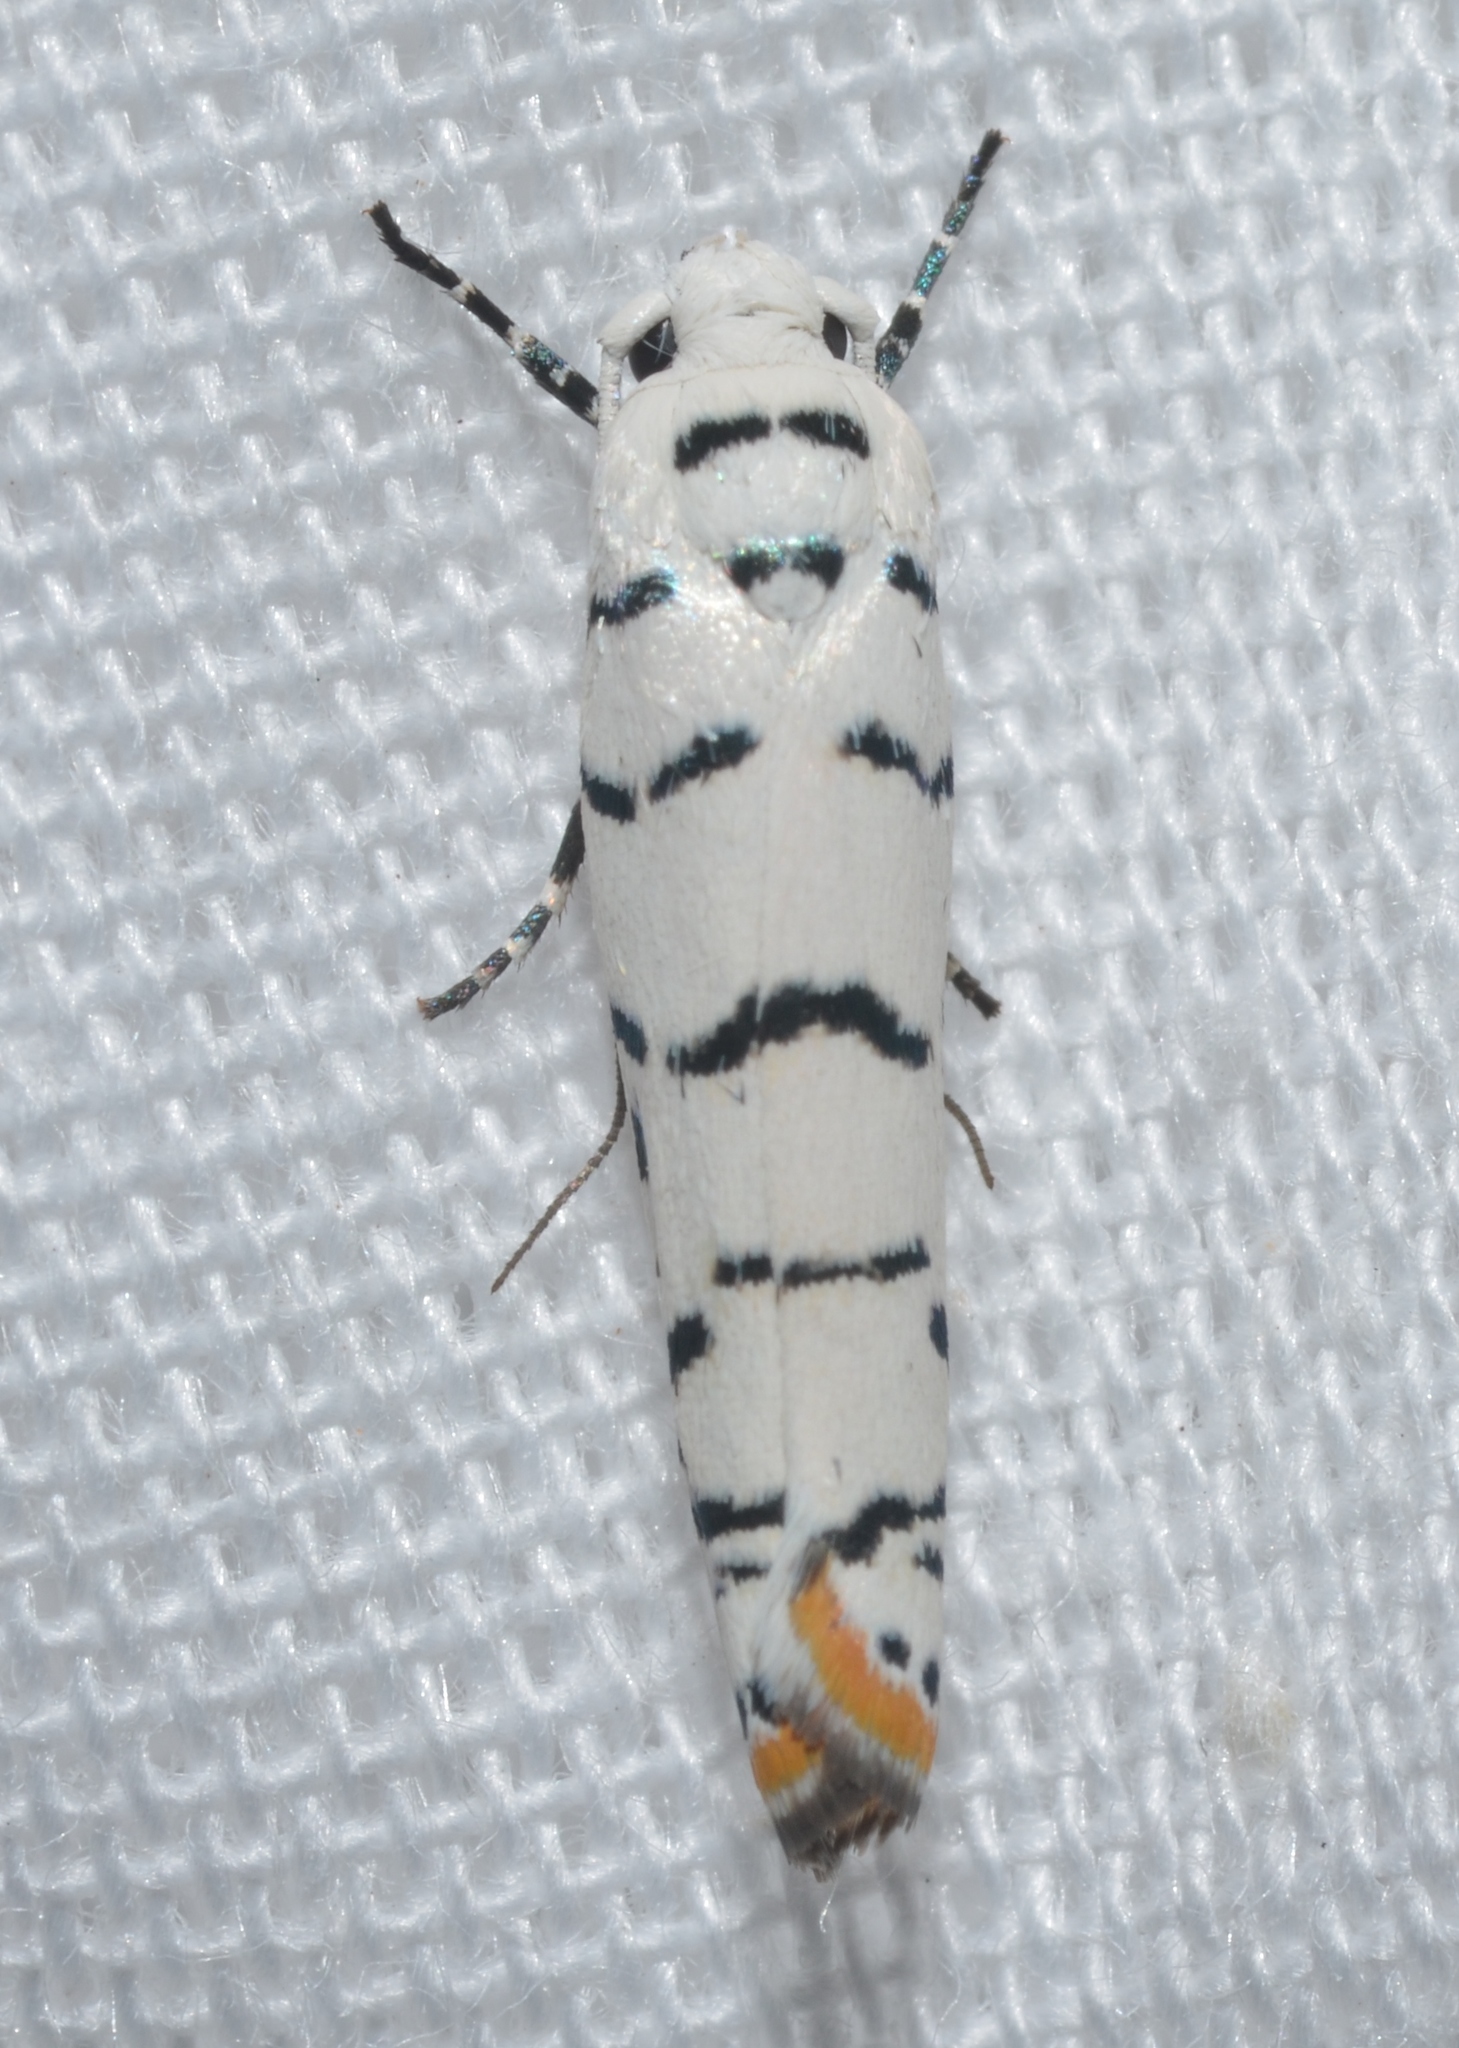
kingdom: Animalia
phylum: Arthropoda
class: Insecta
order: Lepidoptera
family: Ethmiidae
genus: Ethmia
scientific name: Ethmia delliella
